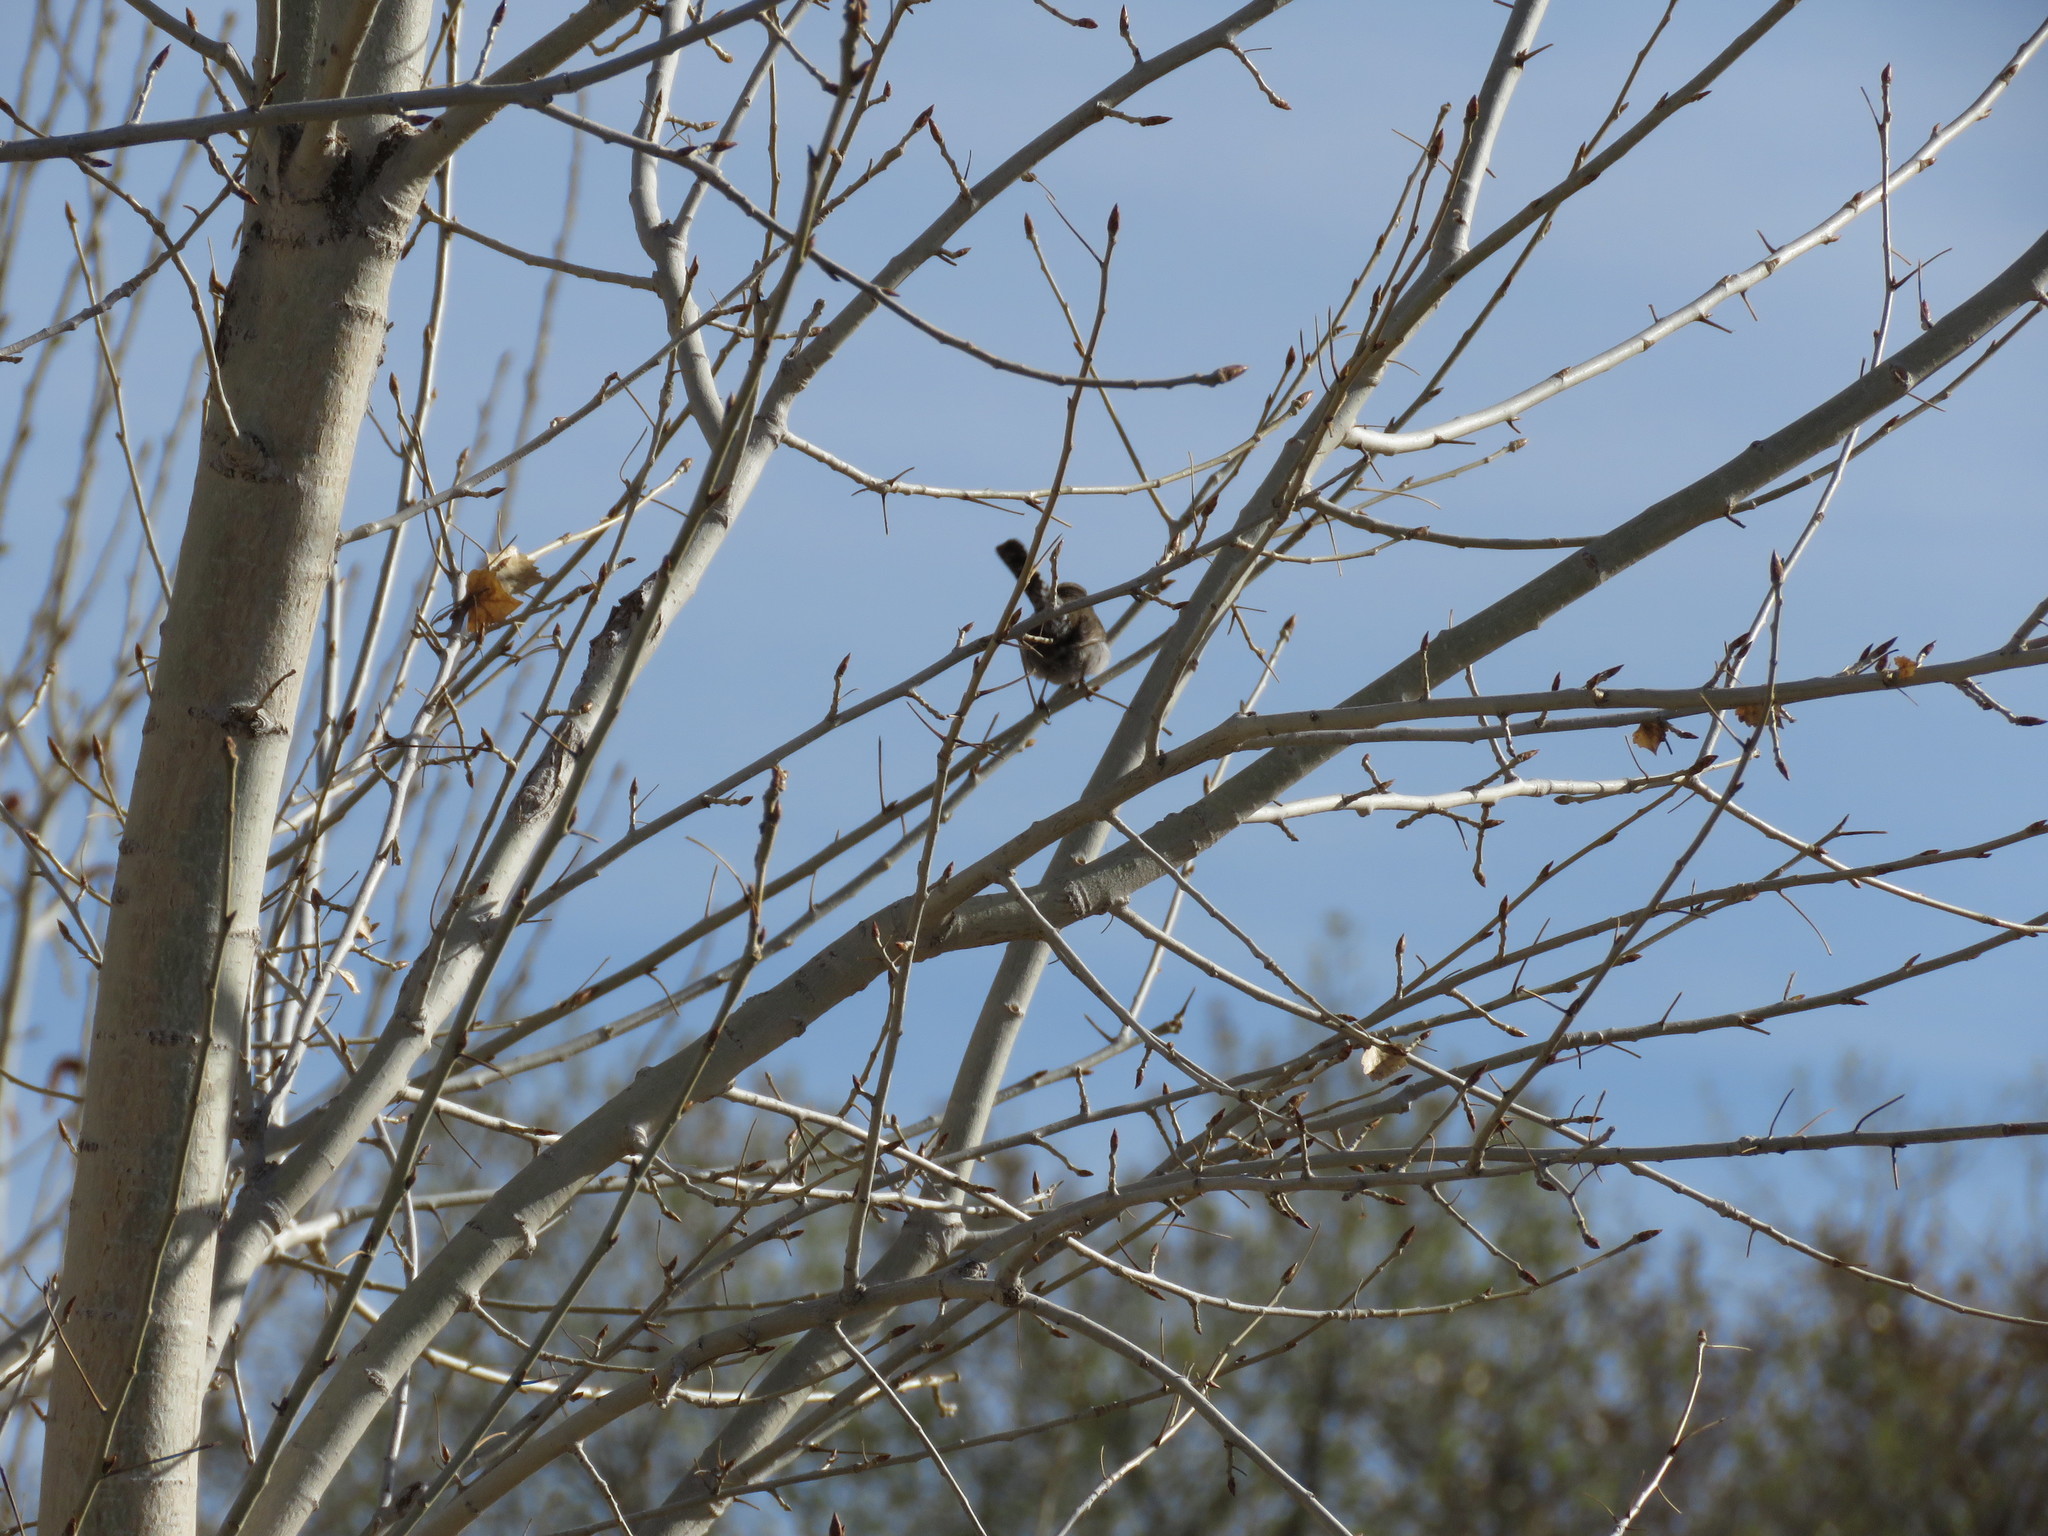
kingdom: Animalia
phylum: Chordata
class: Aves
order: Passeriformes
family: Troglodytidae
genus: Thryomanes
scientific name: Thryomanes bewickii
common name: Bewick's wren
